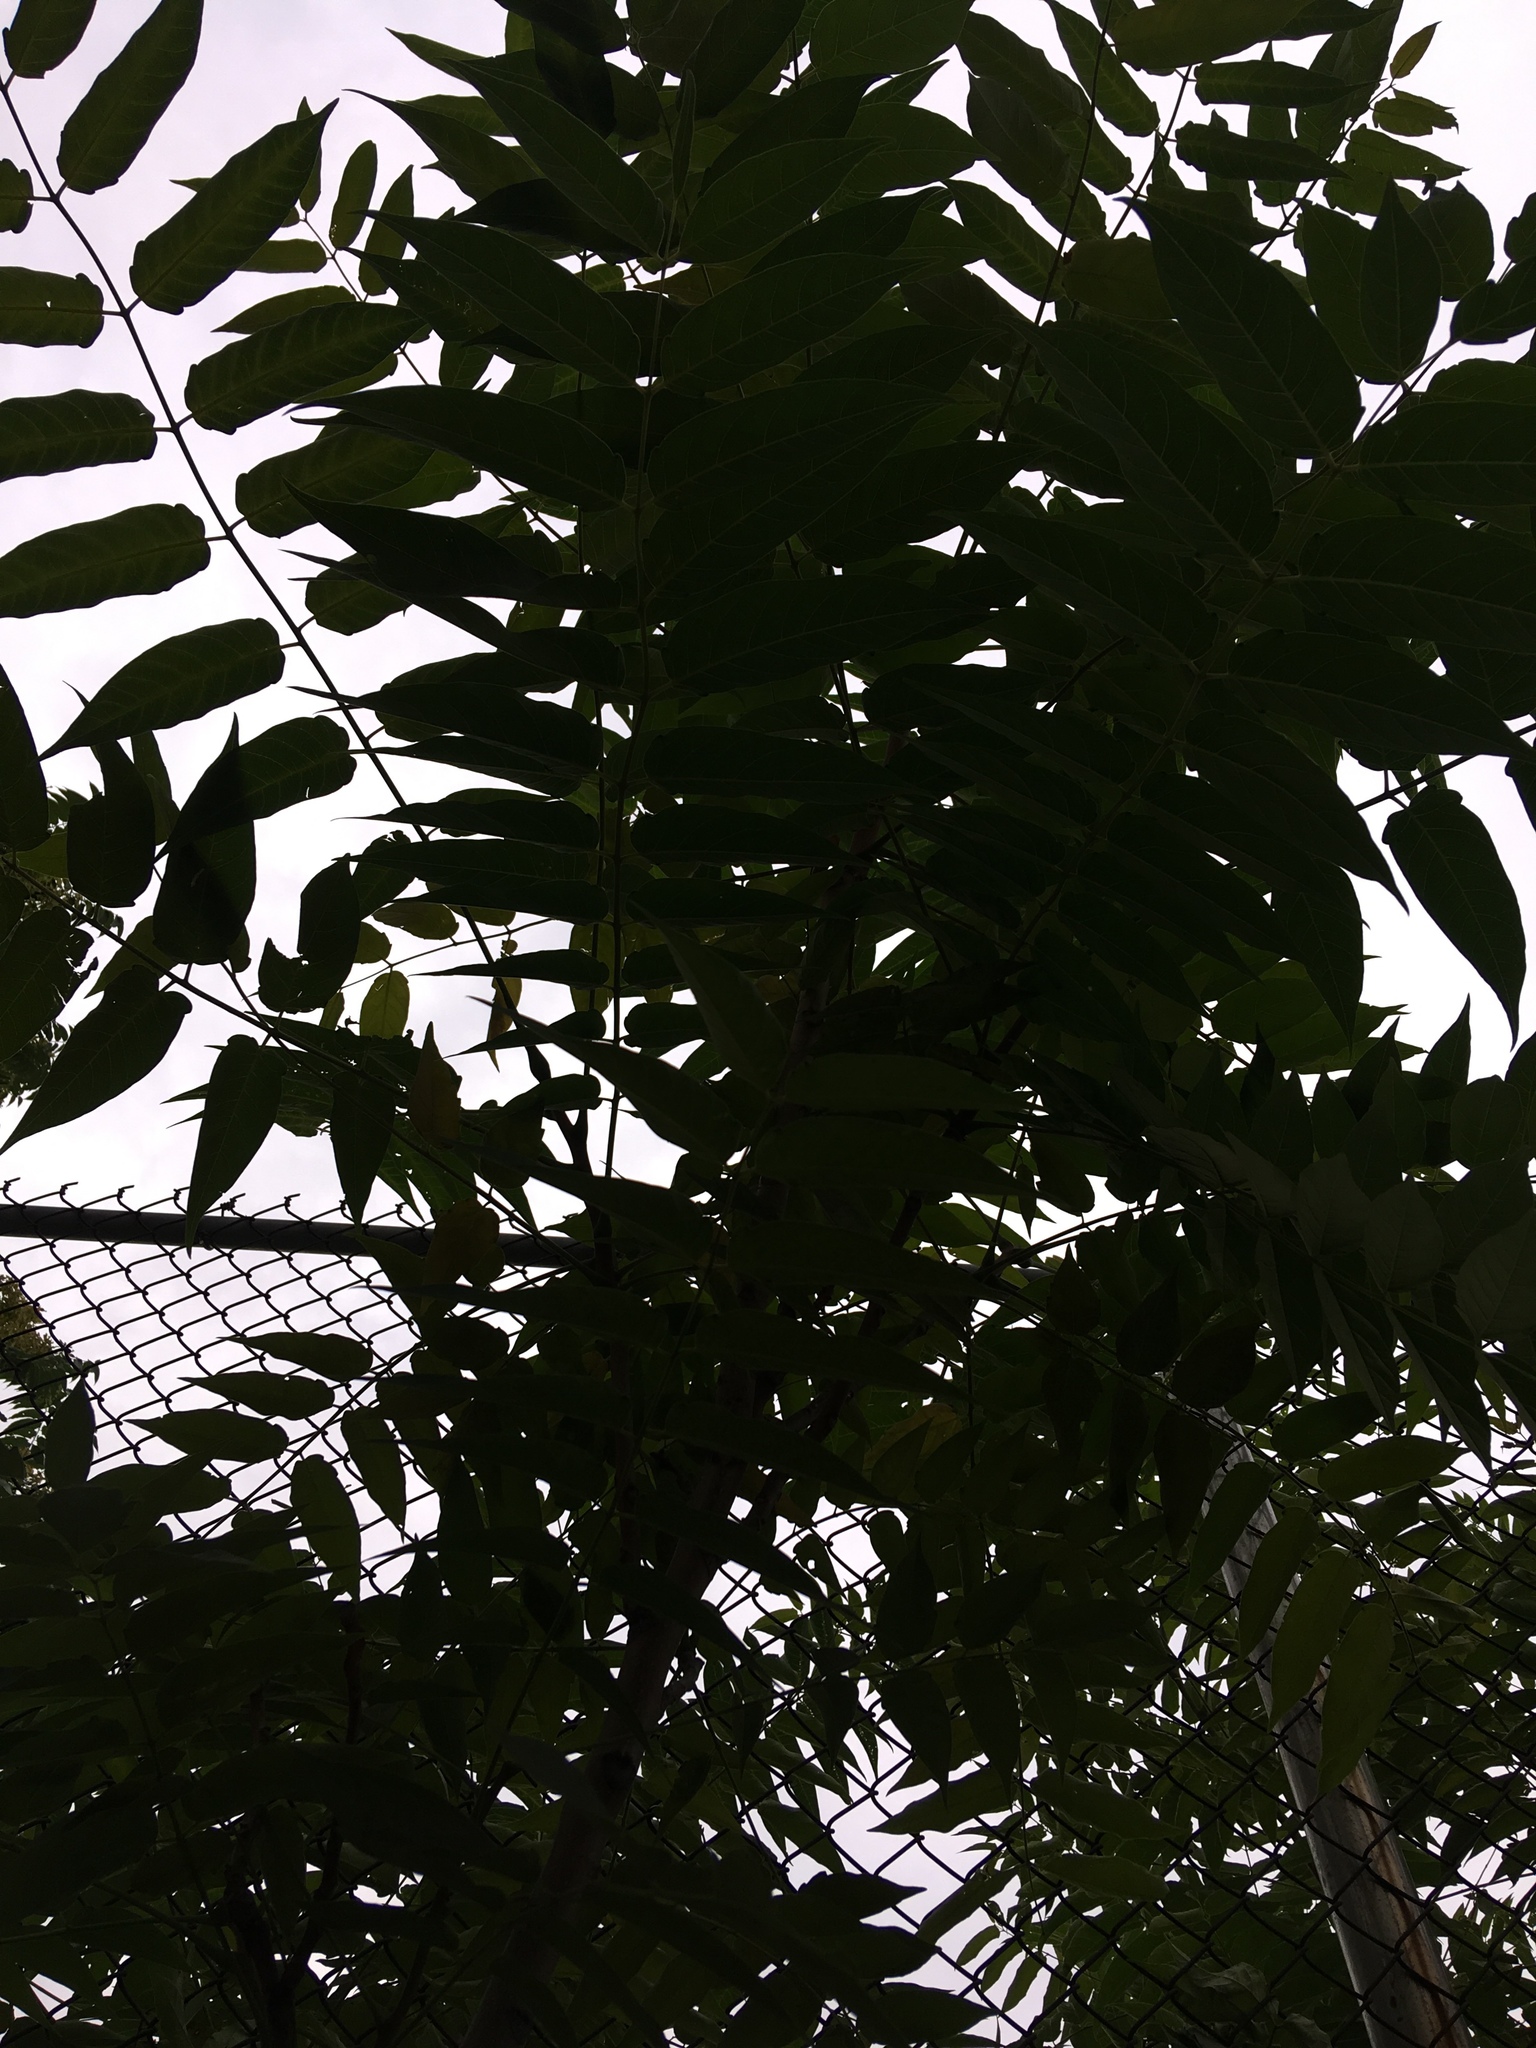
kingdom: Plantae
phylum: Tracheophyta
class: Magnoliopsida
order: Sapindales
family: Simaroubaceae
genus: Ailanthus
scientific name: Ailanthus altissima
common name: Tree-of-heaven
